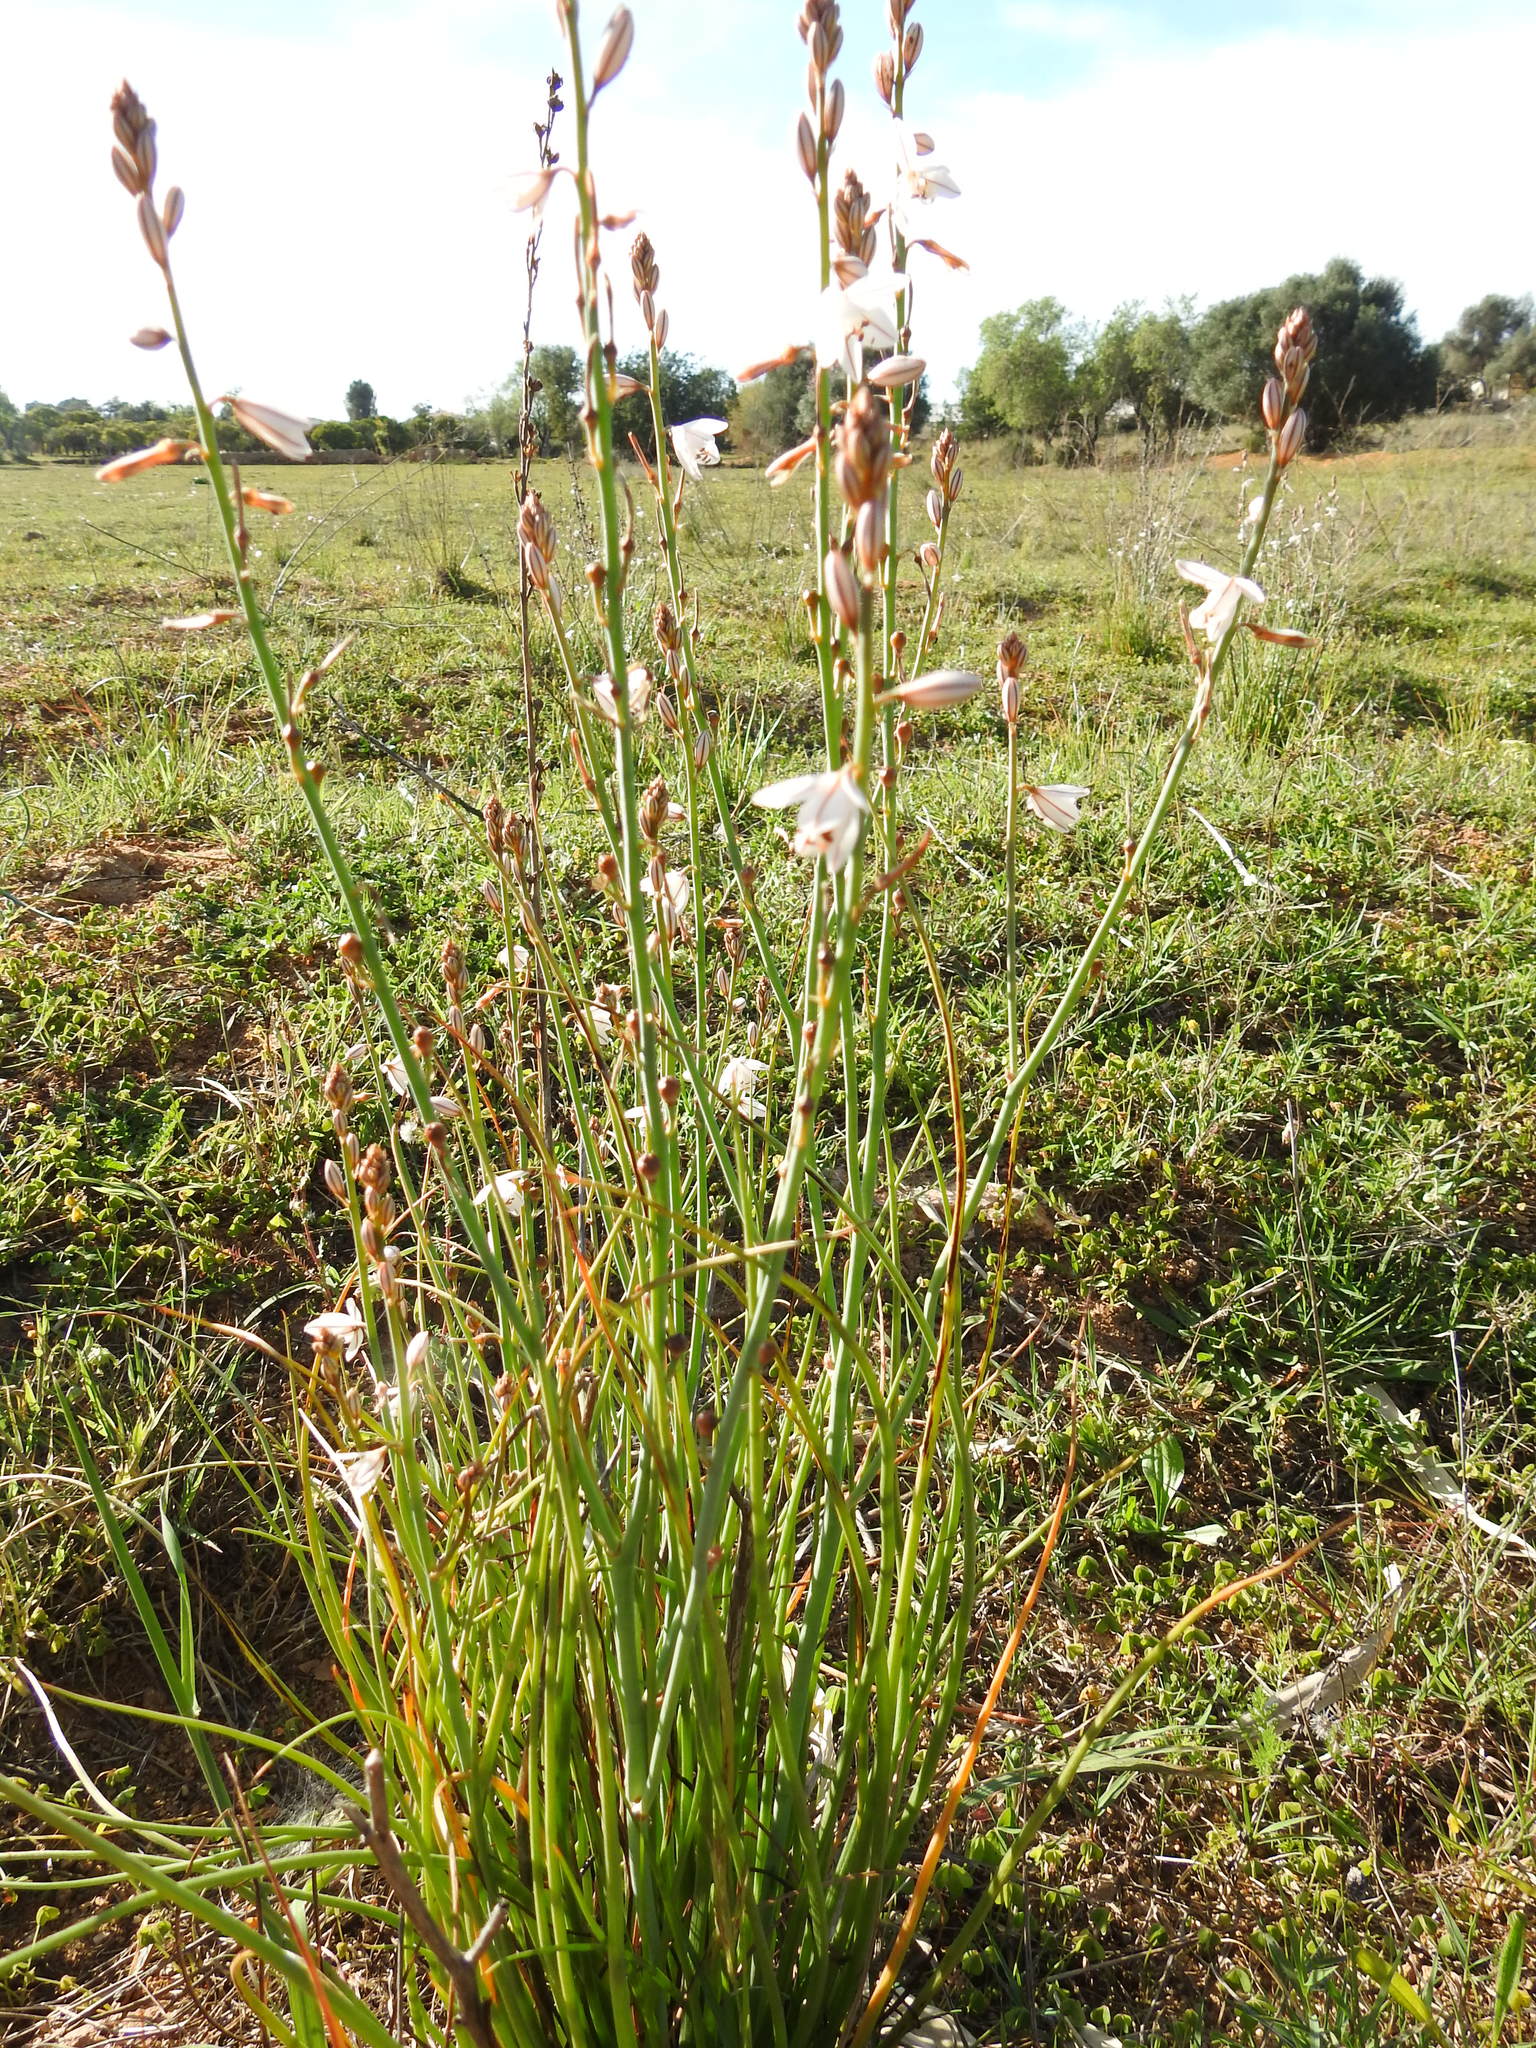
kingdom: Plantae
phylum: Tracheophyta
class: Liliopsida
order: Asparagales
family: Asphodelaceae
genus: Asphodelus
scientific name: Asphodelus fistulosus
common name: Onionweed
